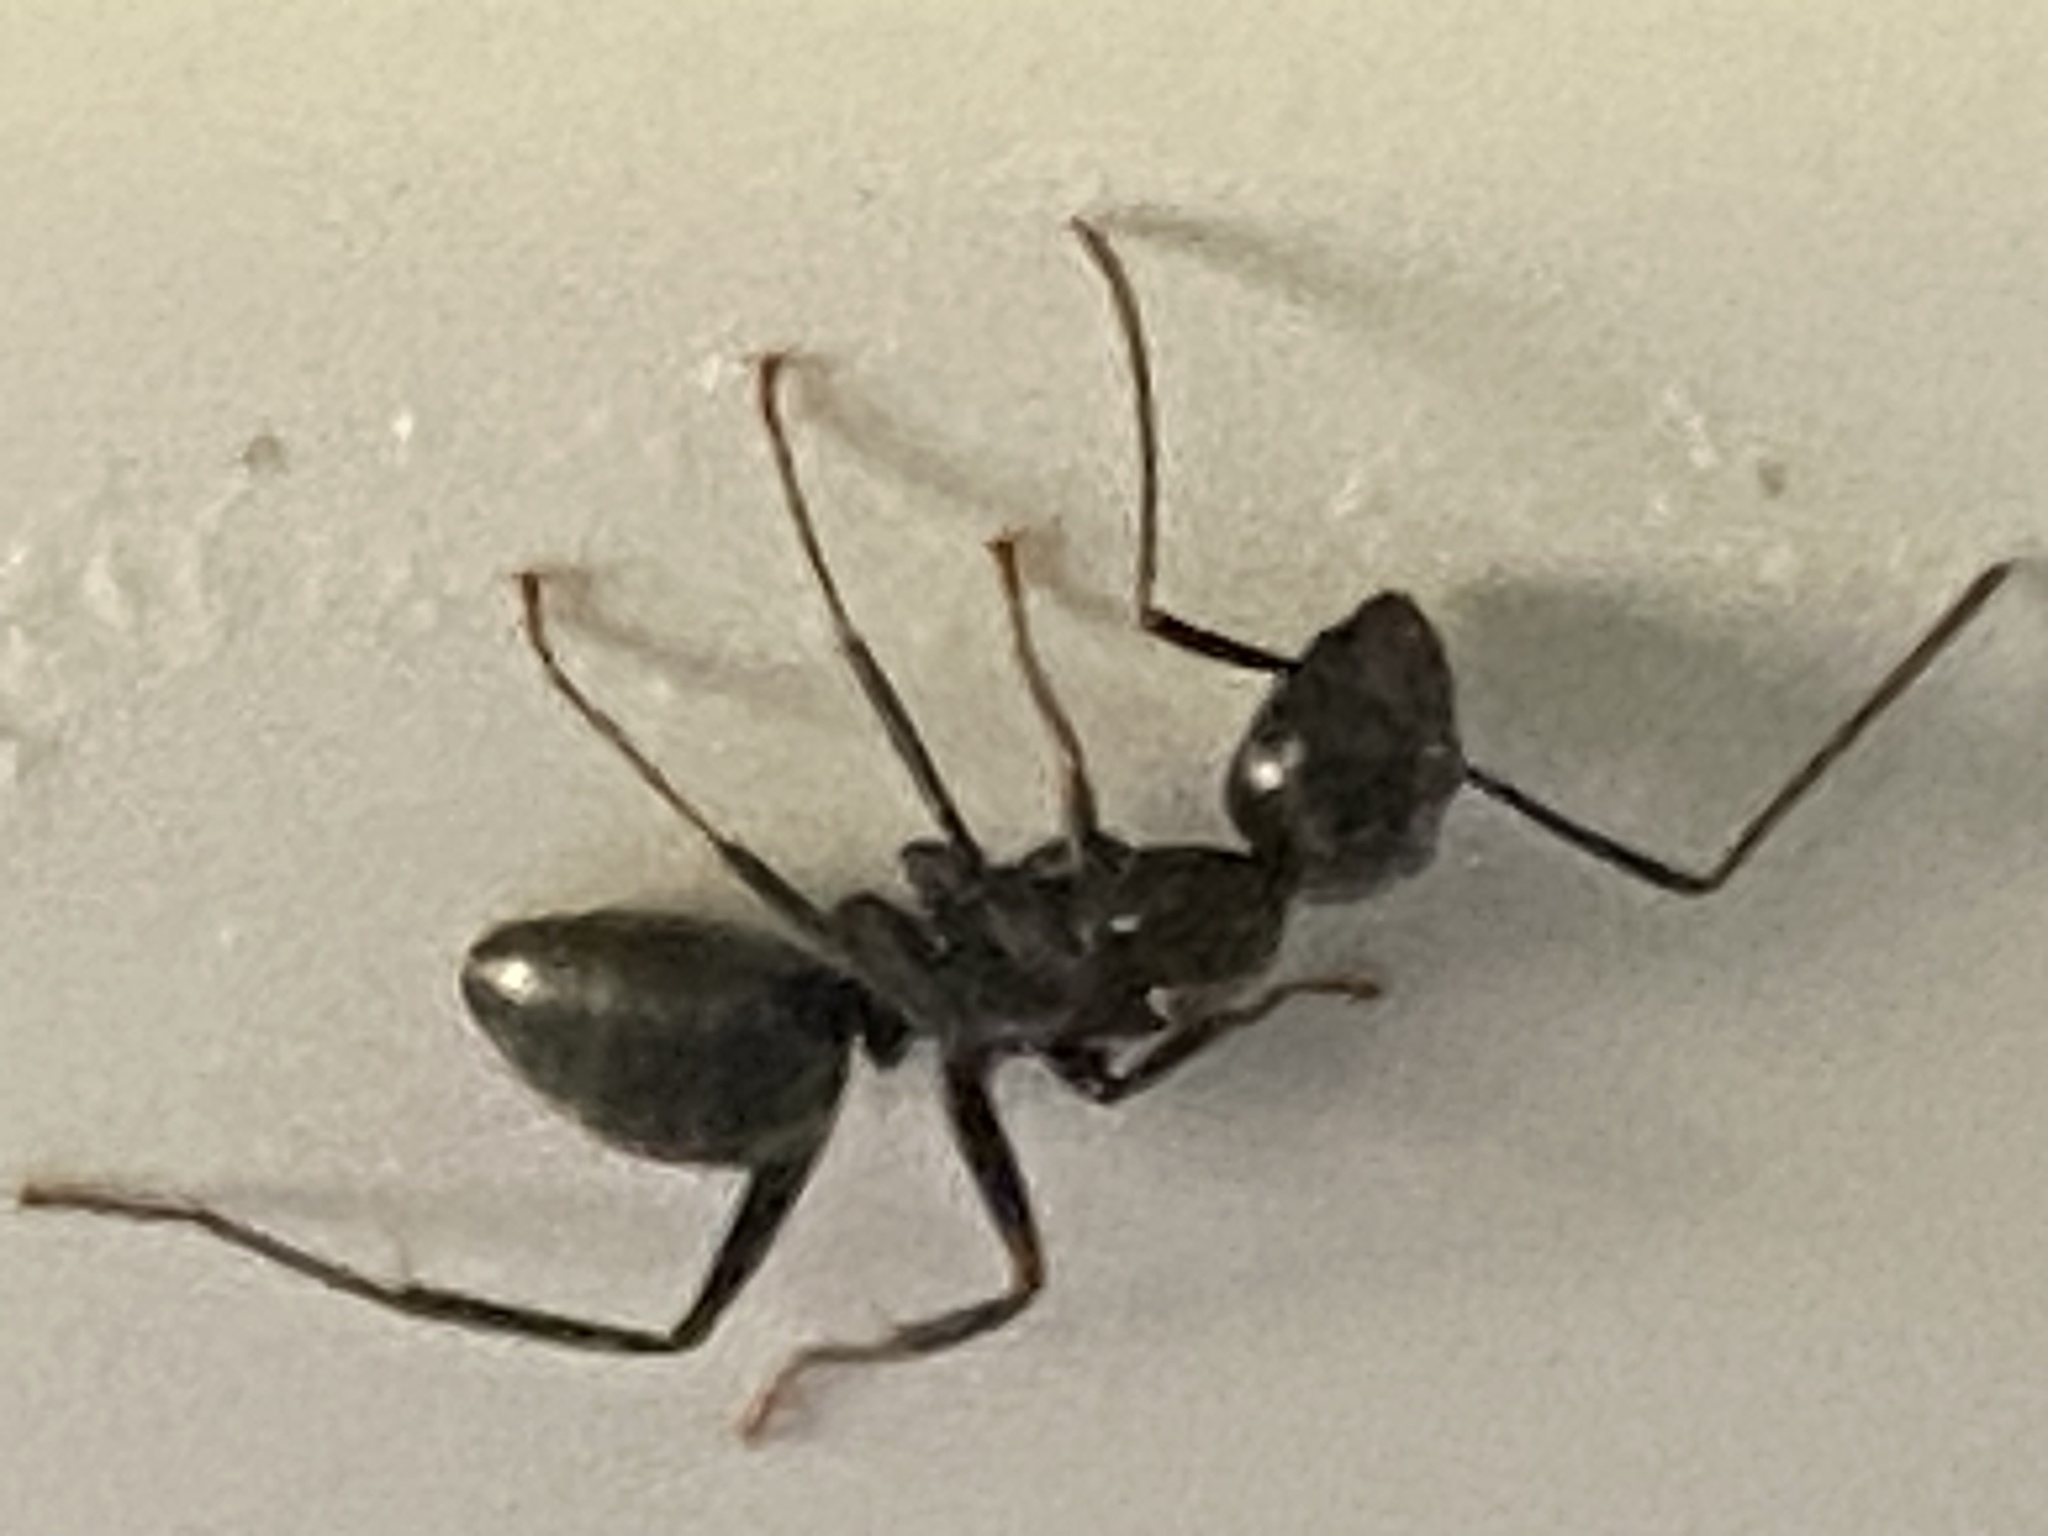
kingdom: Animalia
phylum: Arthropoda
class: Insecta
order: Hymenoptera
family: Formicidae
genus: Camponotus
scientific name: Camponotus pennsylvanicus
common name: Black carpenter ant
